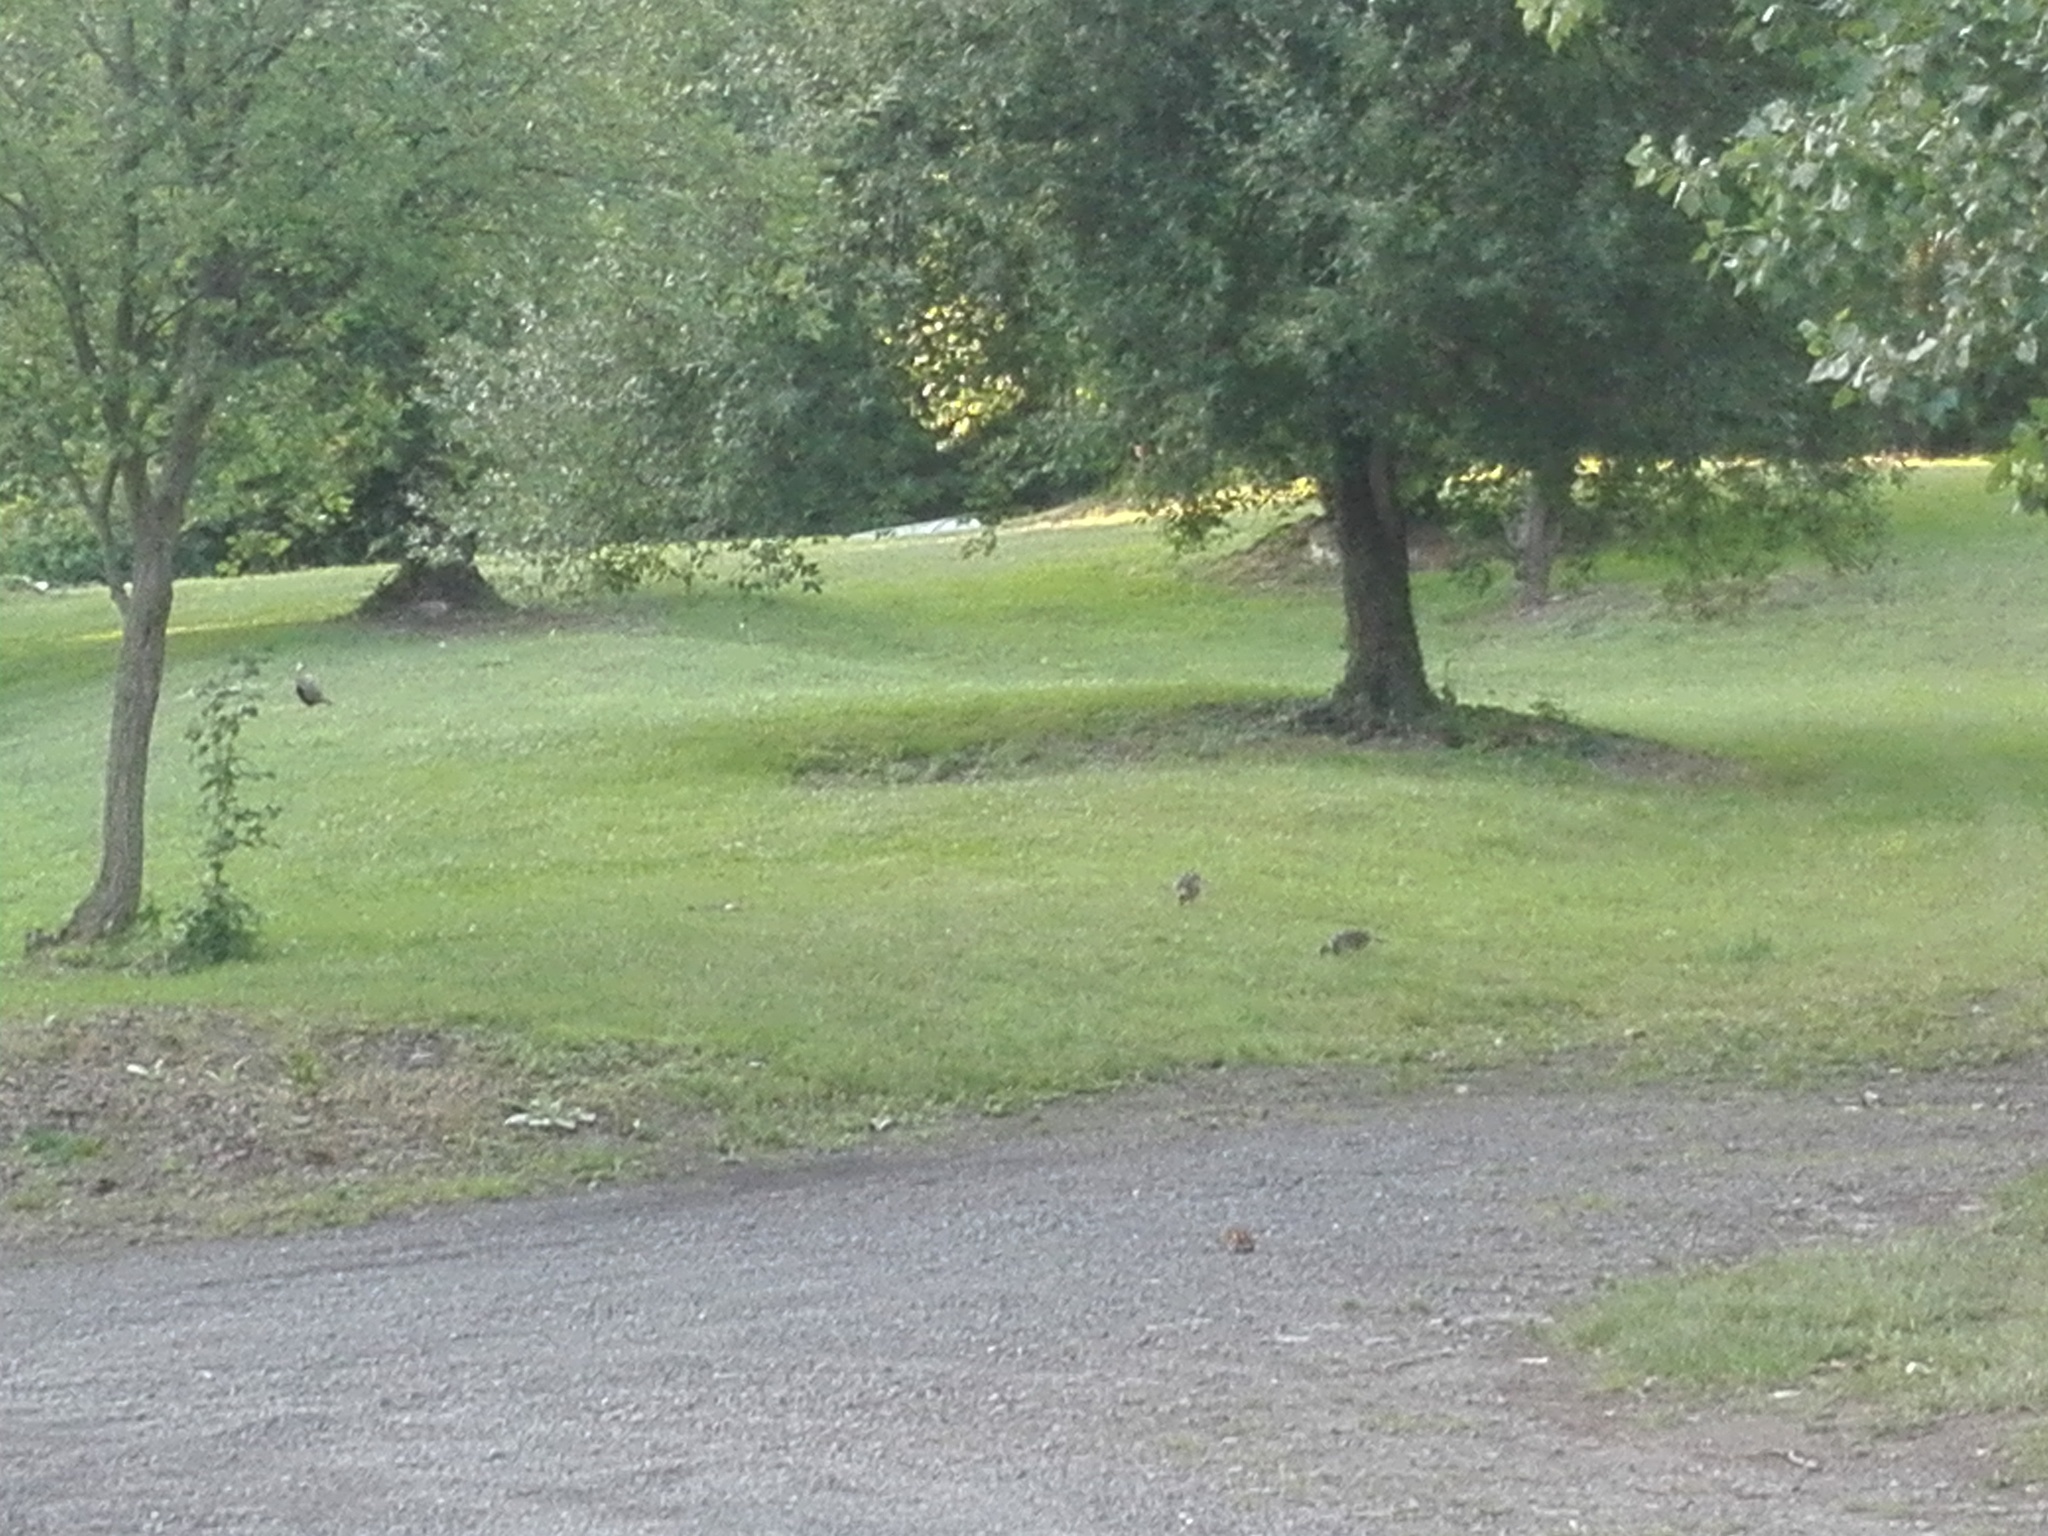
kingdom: Animalia
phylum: Chordata
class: Aves
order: Galliformes
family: Phasianidae
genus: Syrmaticus
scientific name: Syrmaticus reevesii
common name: Reeves's pheasant
